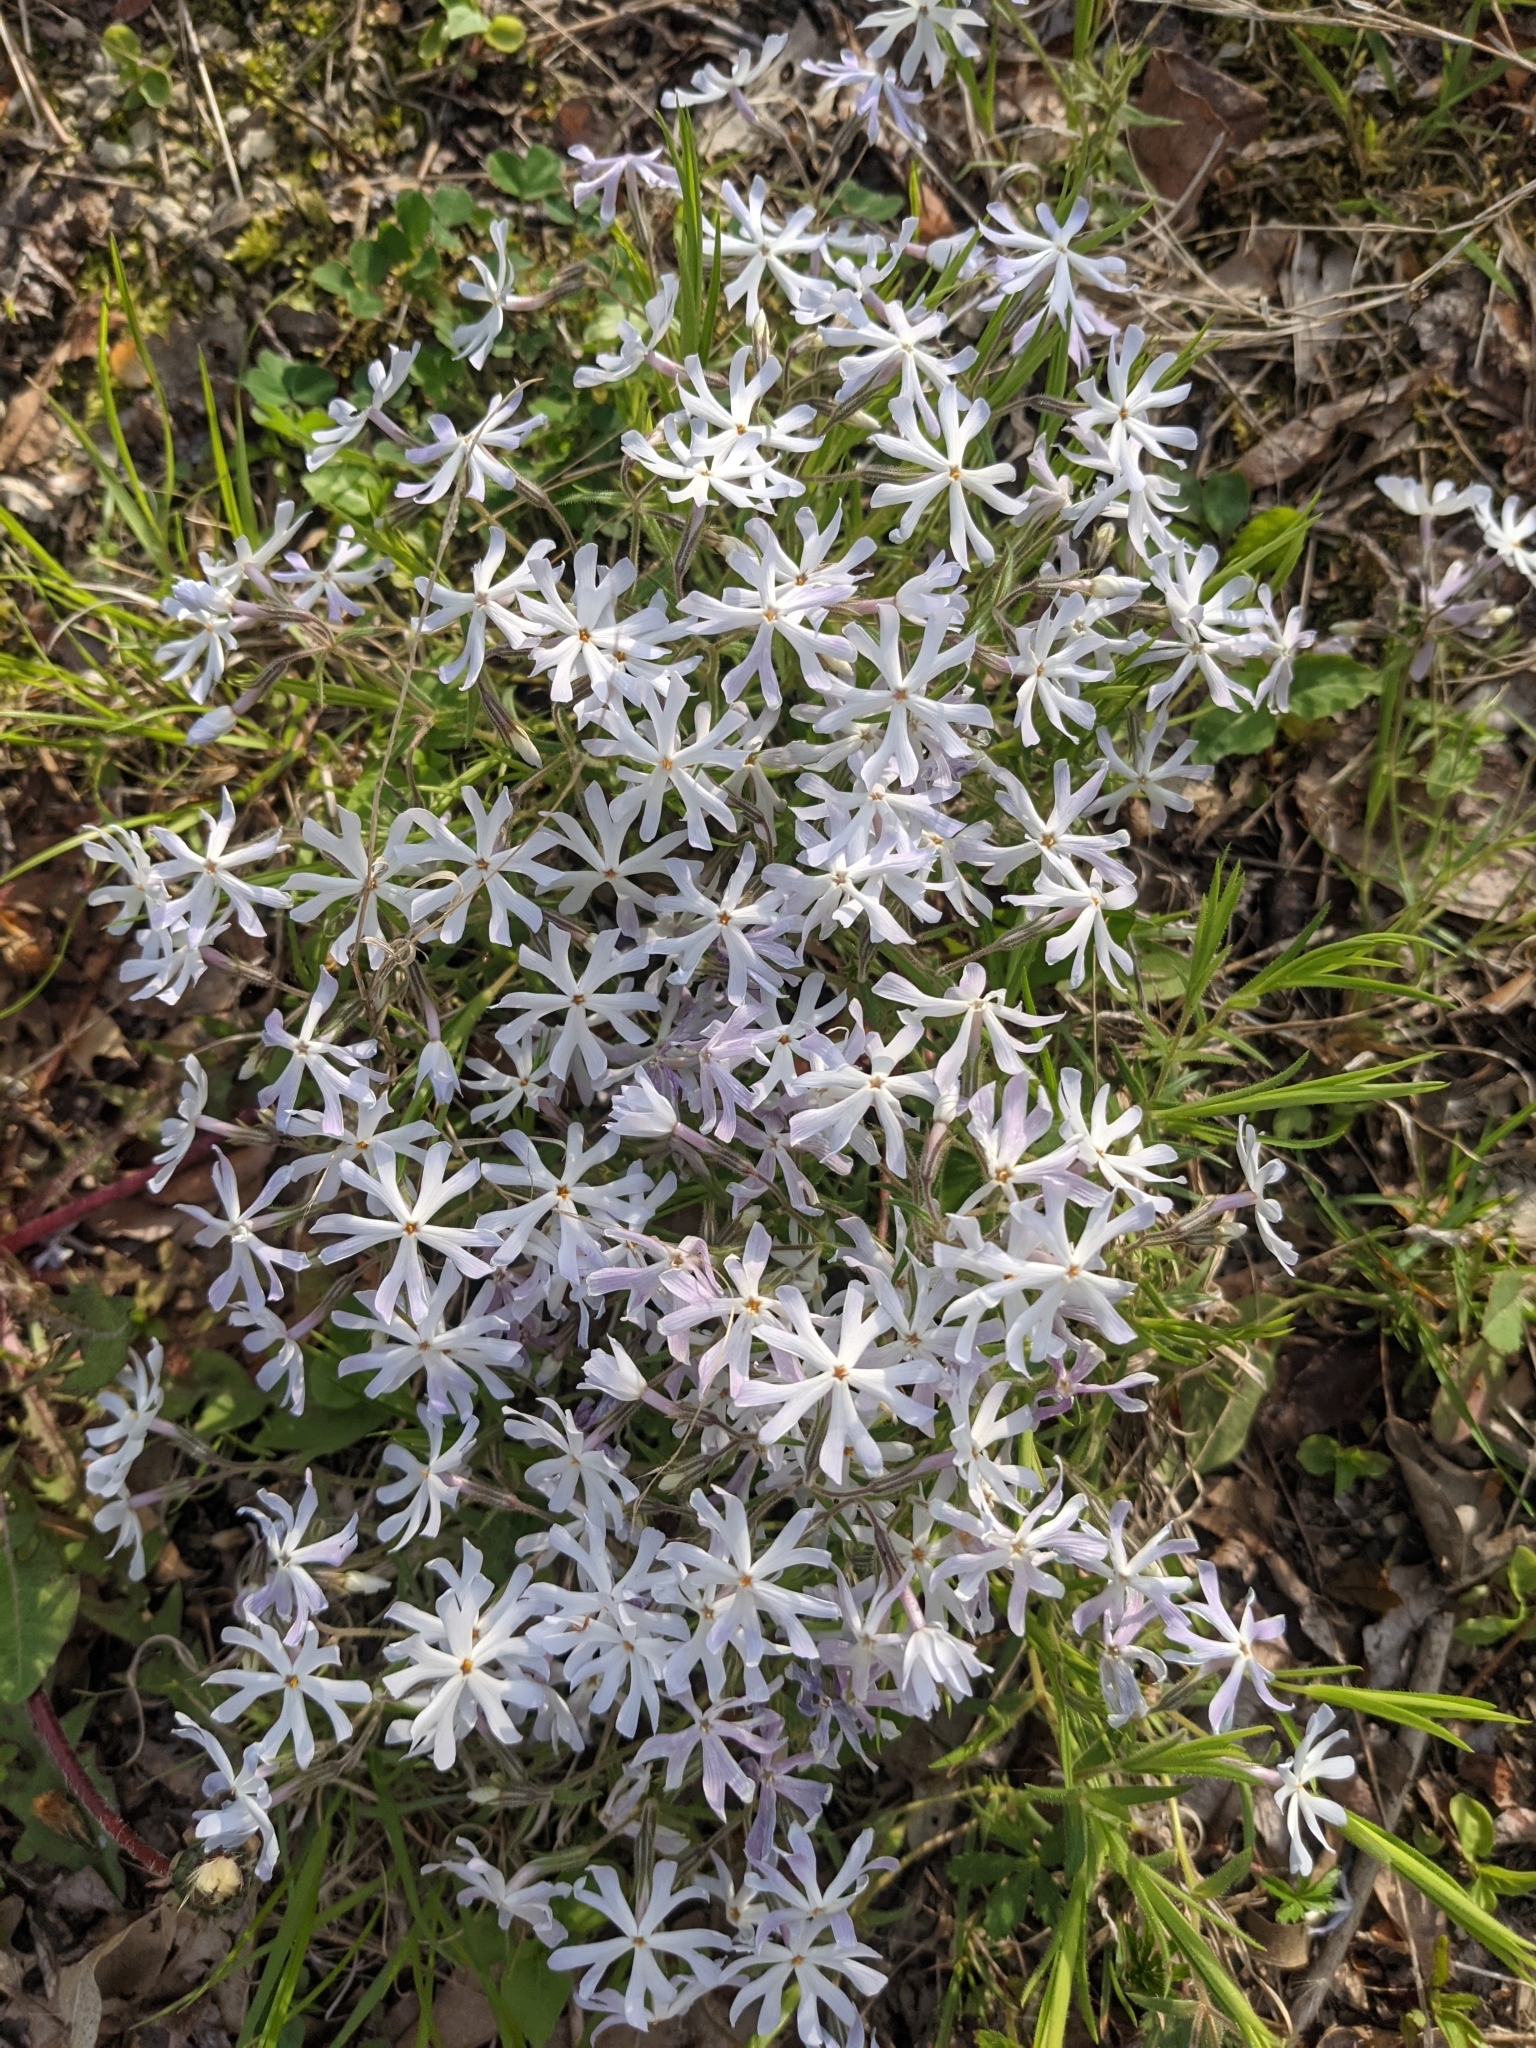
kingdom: Plantae
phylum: Tracheophyta
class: Magnoliopsida
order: Ericales
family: Polemoniaceae
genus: Phlox
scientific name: Phlox bifida
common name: Sand phlox
